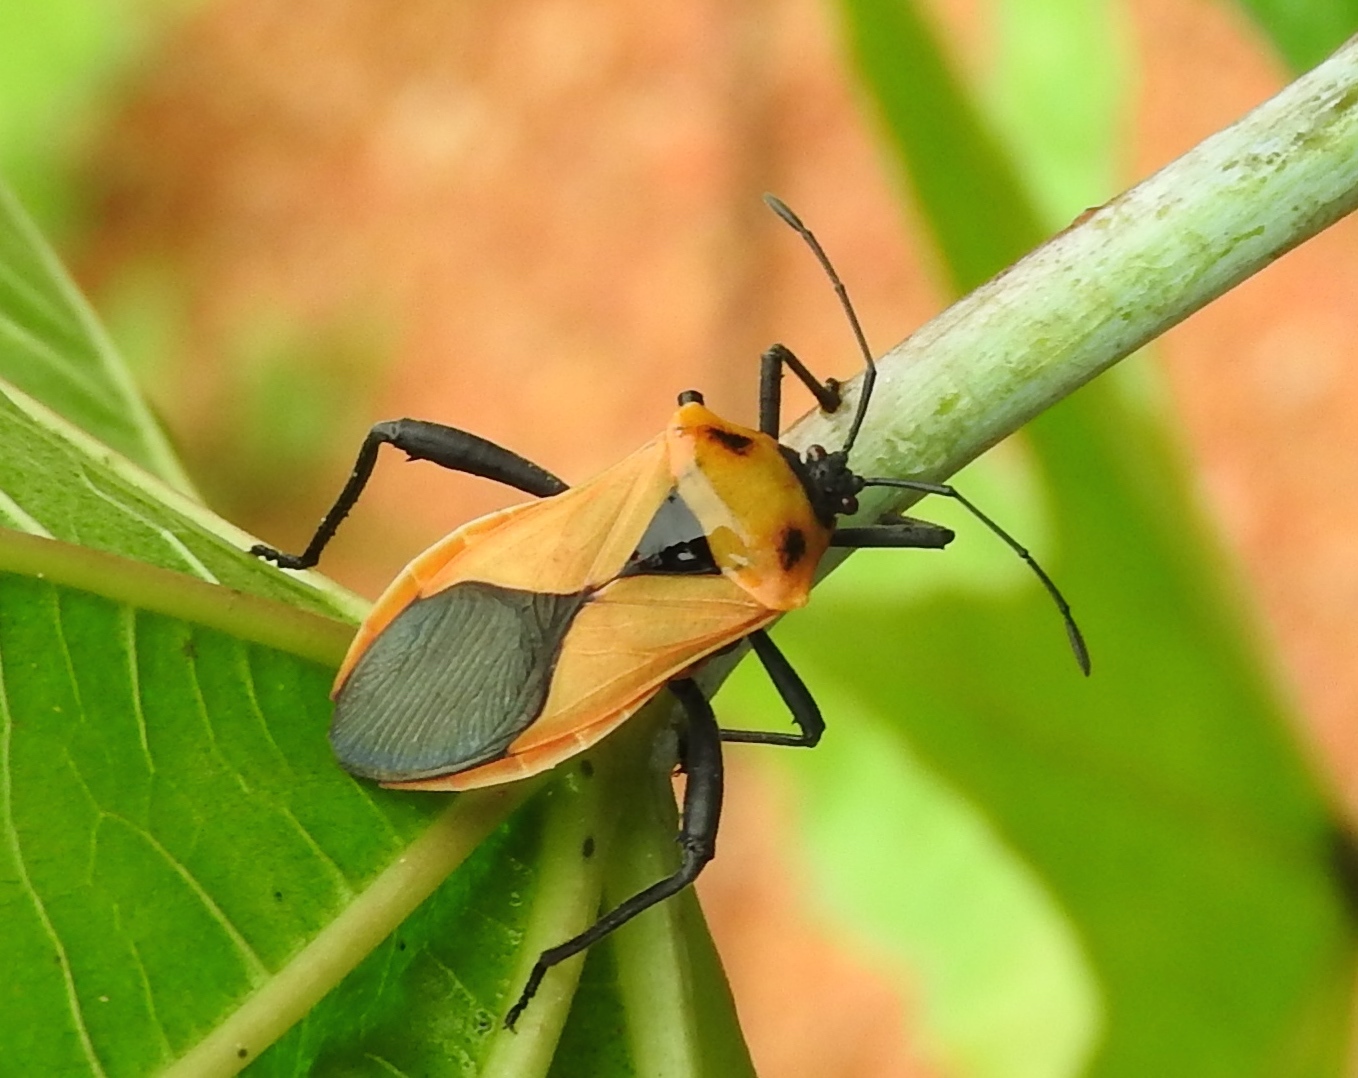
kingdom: Animalia
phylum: Arthropoda
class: Insecta
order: Hemiptera
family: Coreidae
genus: Sagotylus
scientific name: Sagotylus confluens
